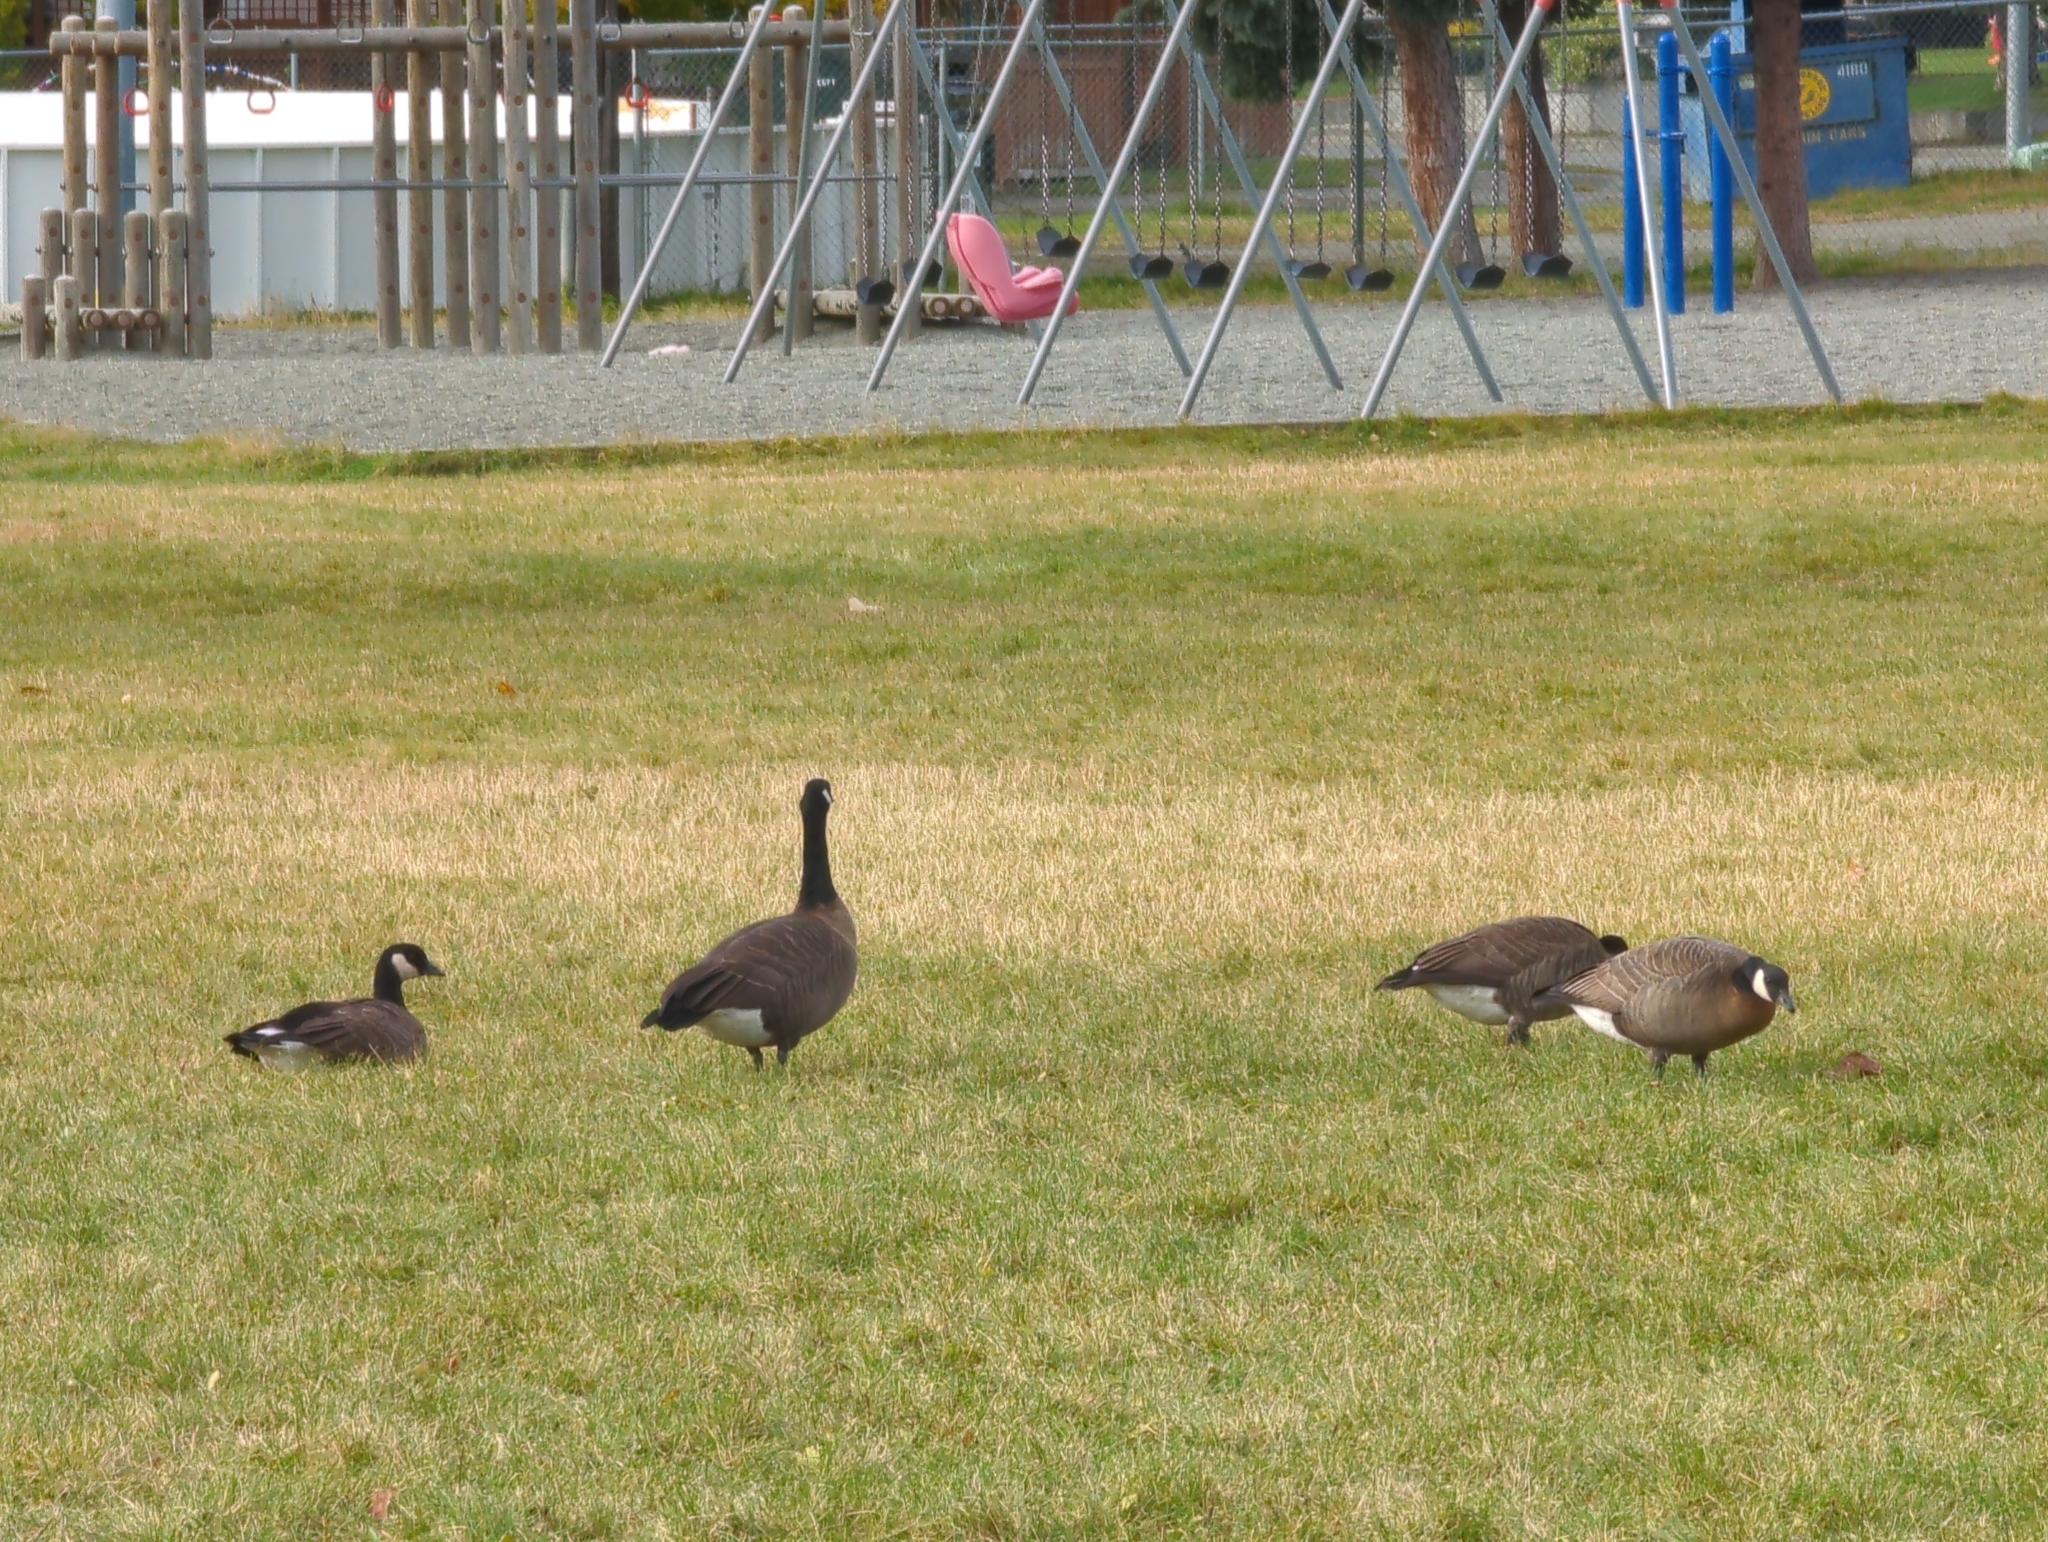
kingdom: Animalia
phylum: Chordata
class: Aves
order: Anseriformes
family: Anatidae
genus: Branta
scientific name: Branta canadensis
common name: Canada goose
